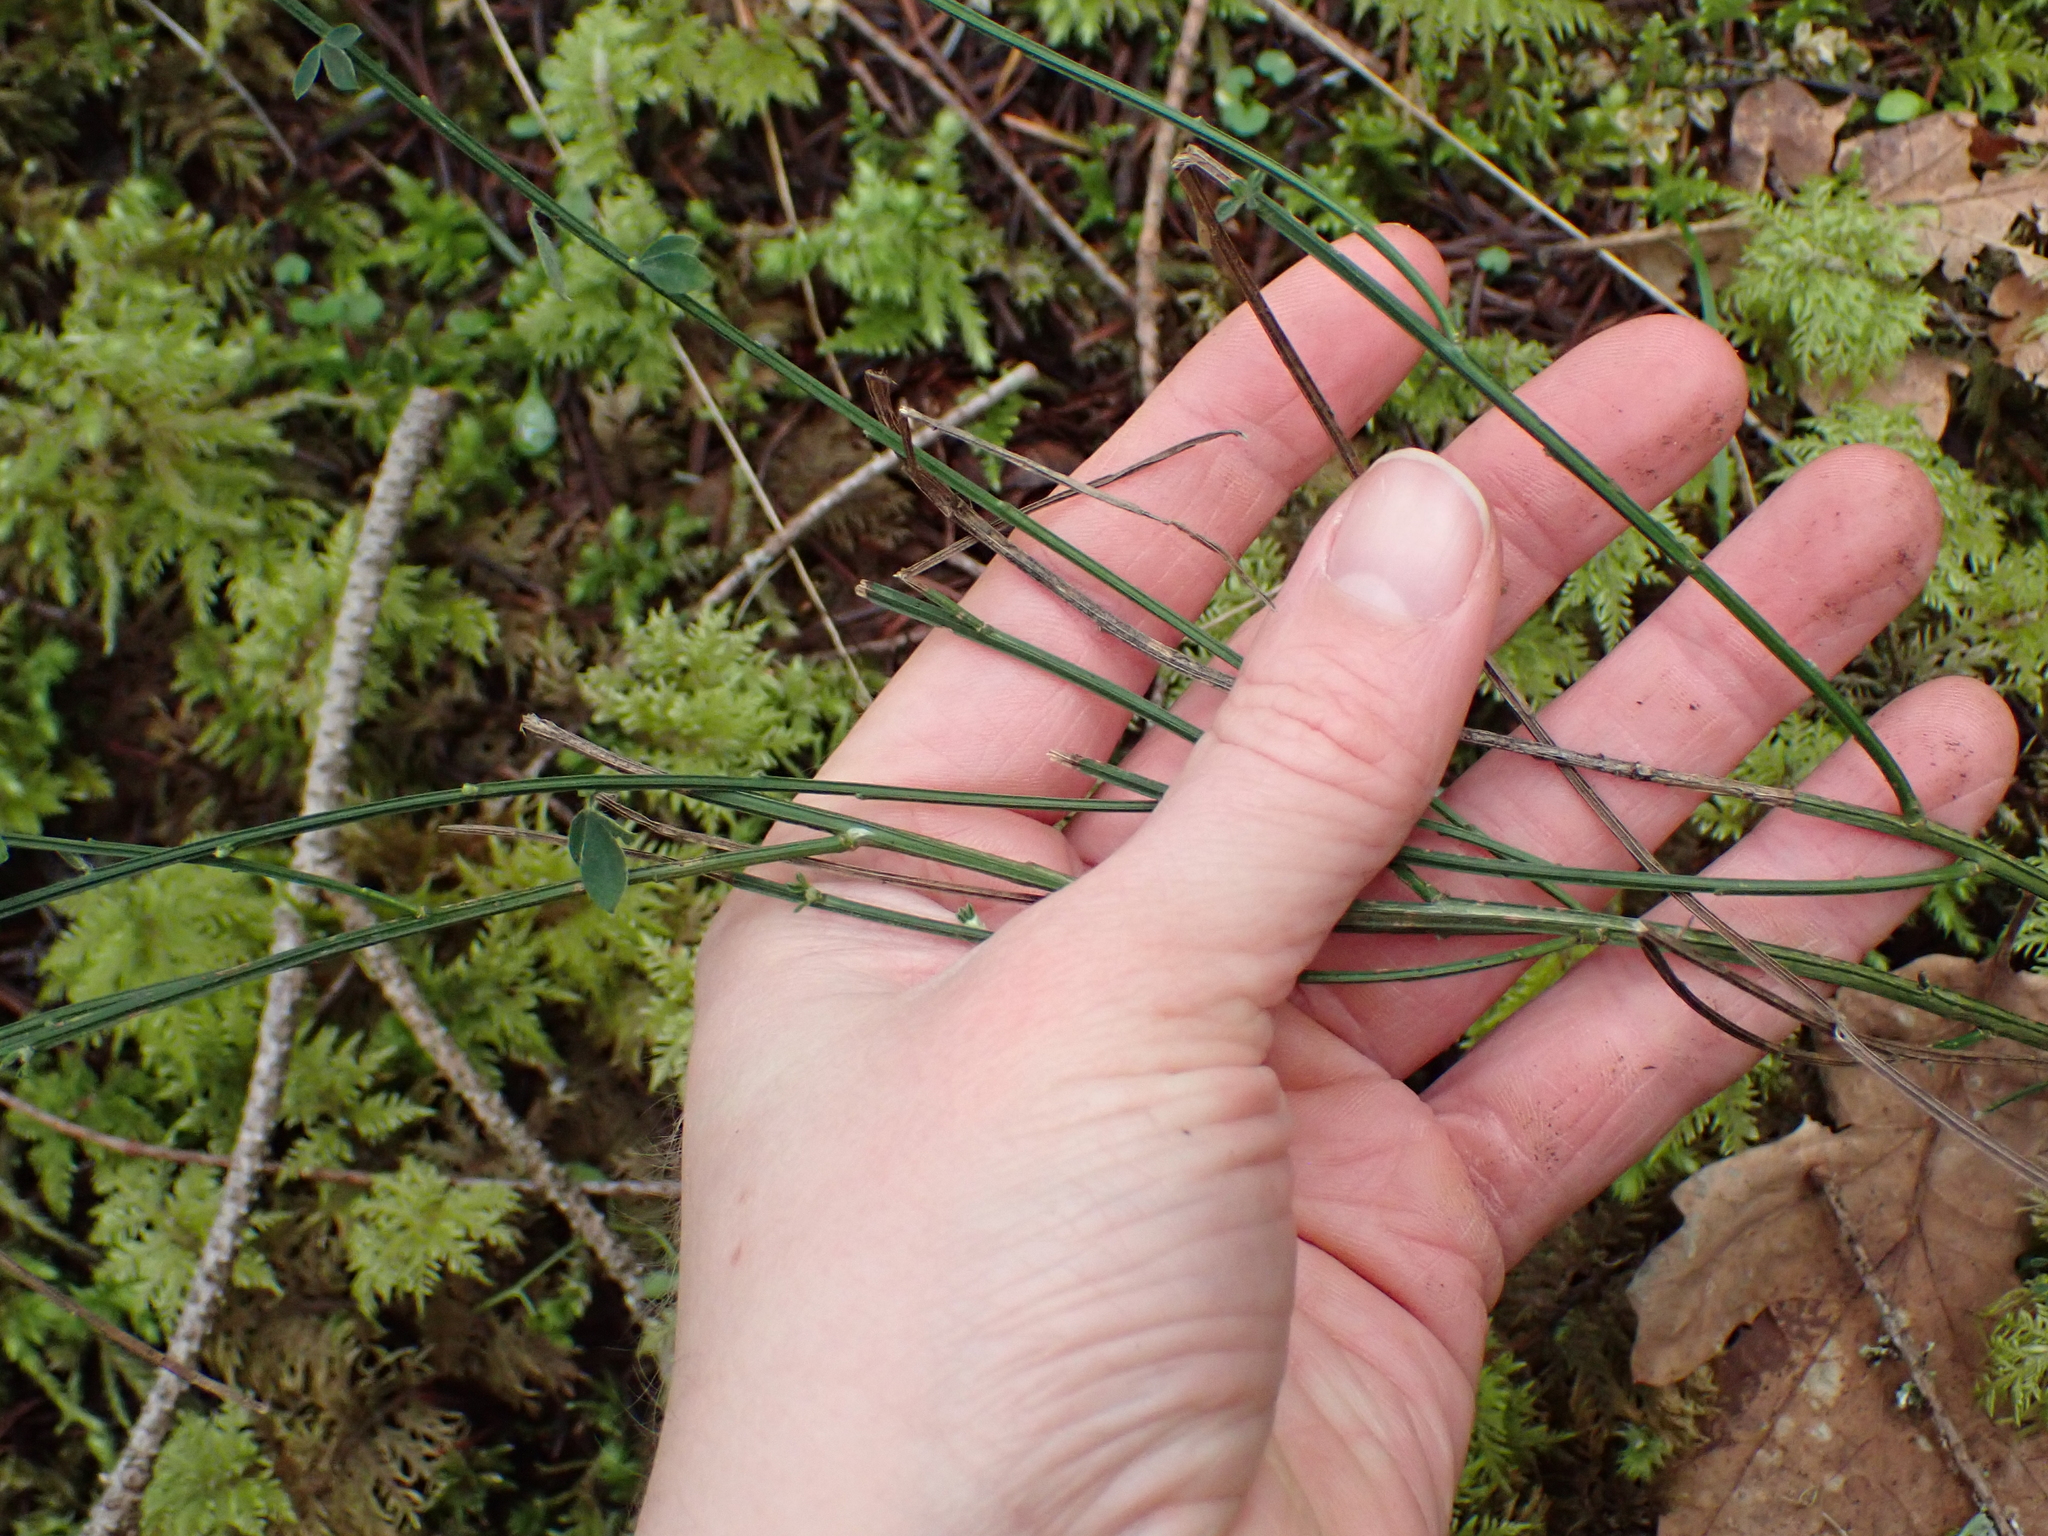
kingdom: Plantae
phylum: Tracheophyta
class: Magnoliopsida
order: Fabales
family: Fabaceae
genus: Cytisus
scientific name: Cytisus scoparius
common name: Scotch broom
